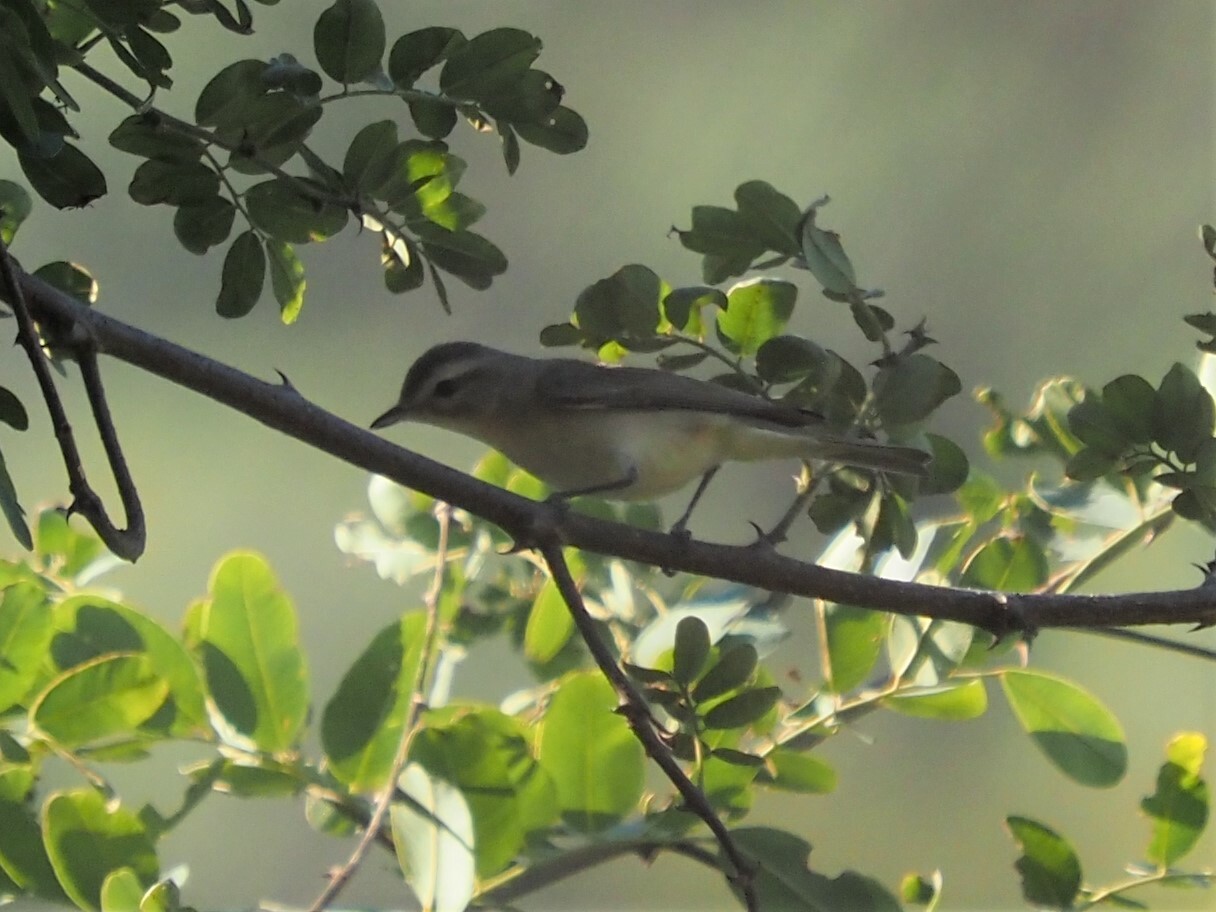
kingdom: Animalia
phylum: Chordata
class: Aves
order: Passeriformes
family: Vireonidae
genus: Vireo
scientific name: Vireo gilvus
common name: Warbling vireo
